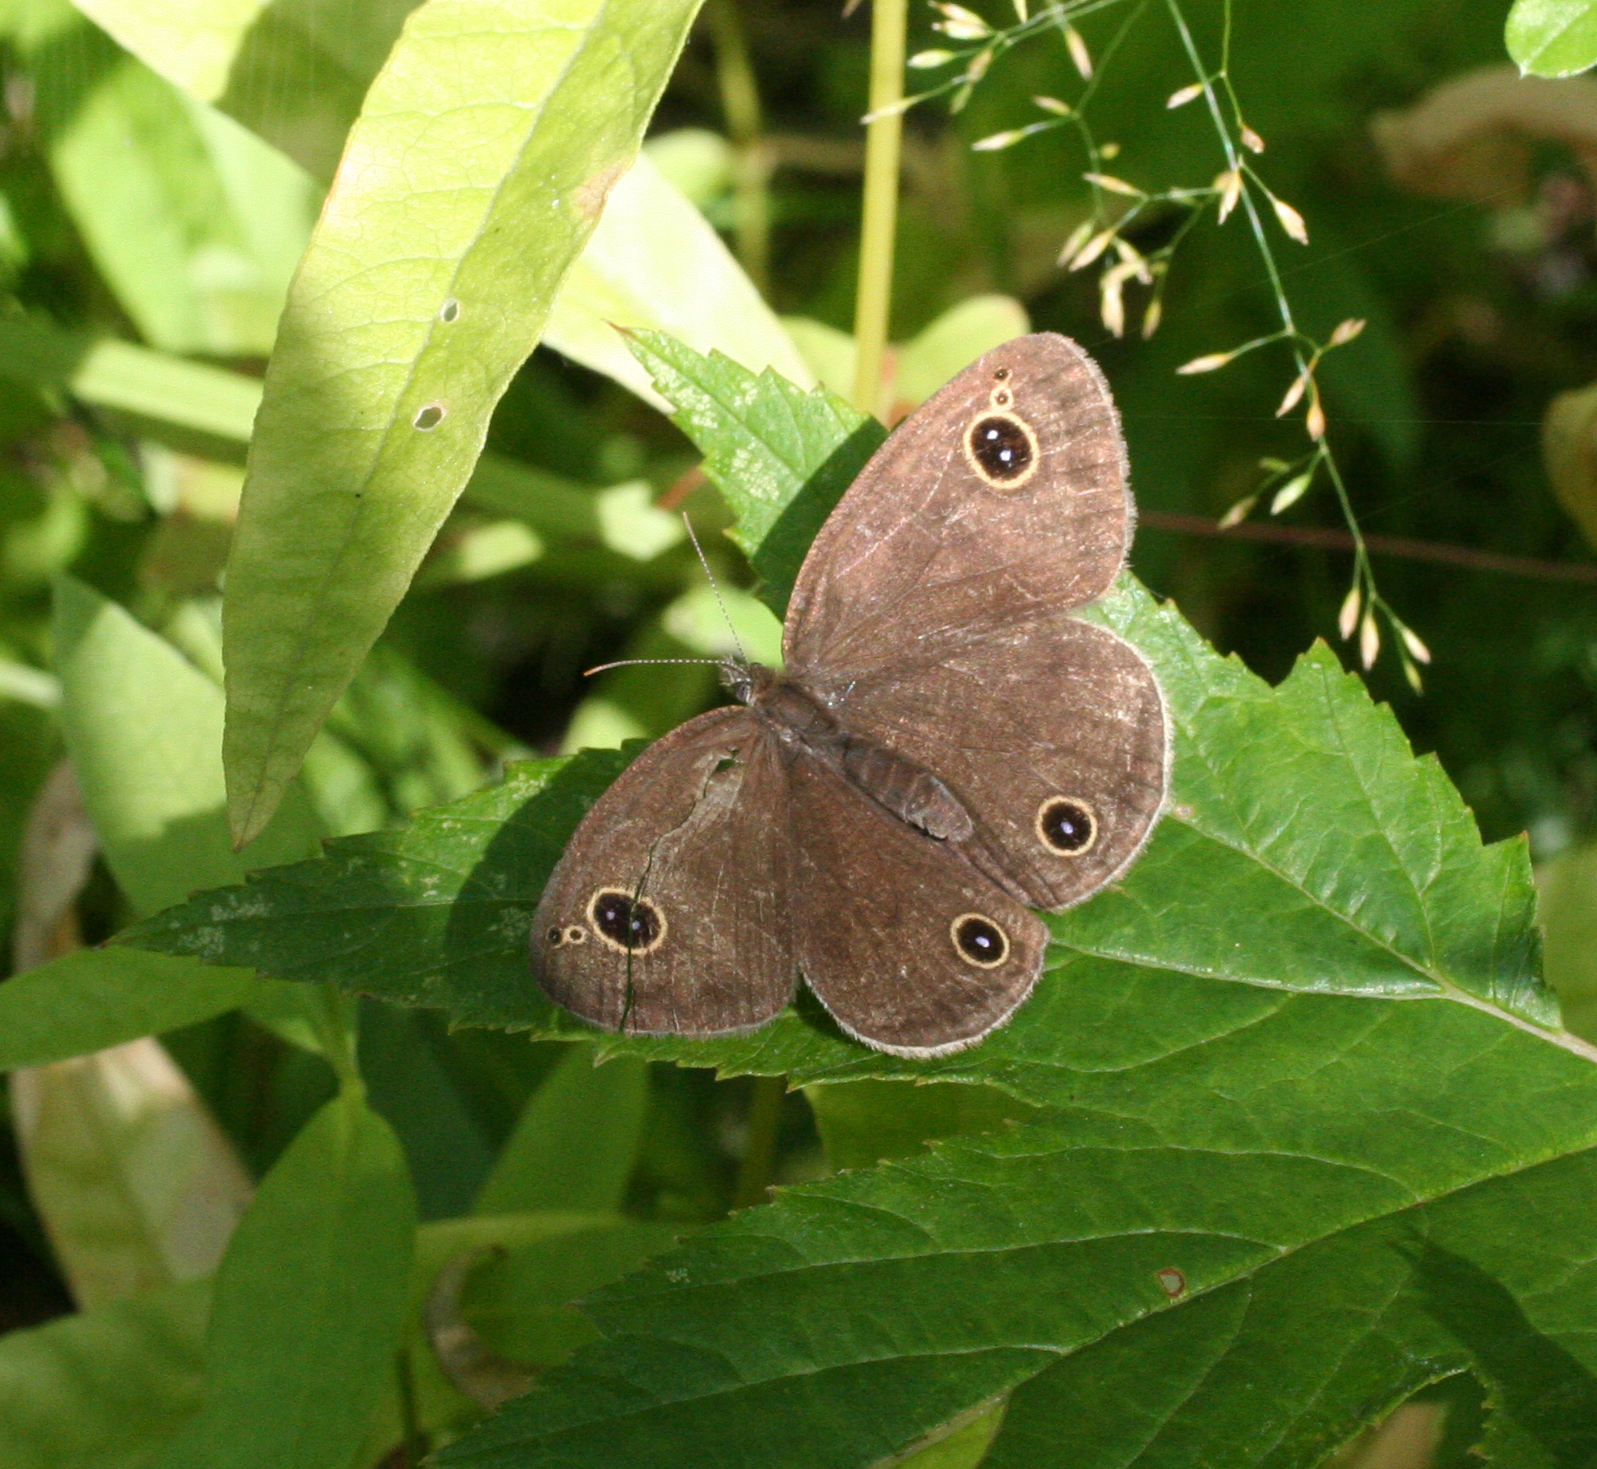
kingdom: Animalia
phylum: Arthropoda
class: Insecta
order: Lepidoptera
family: Nymphalidae
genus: Ypthima
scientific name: Ypthima multistriata
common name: Striated ringlet
